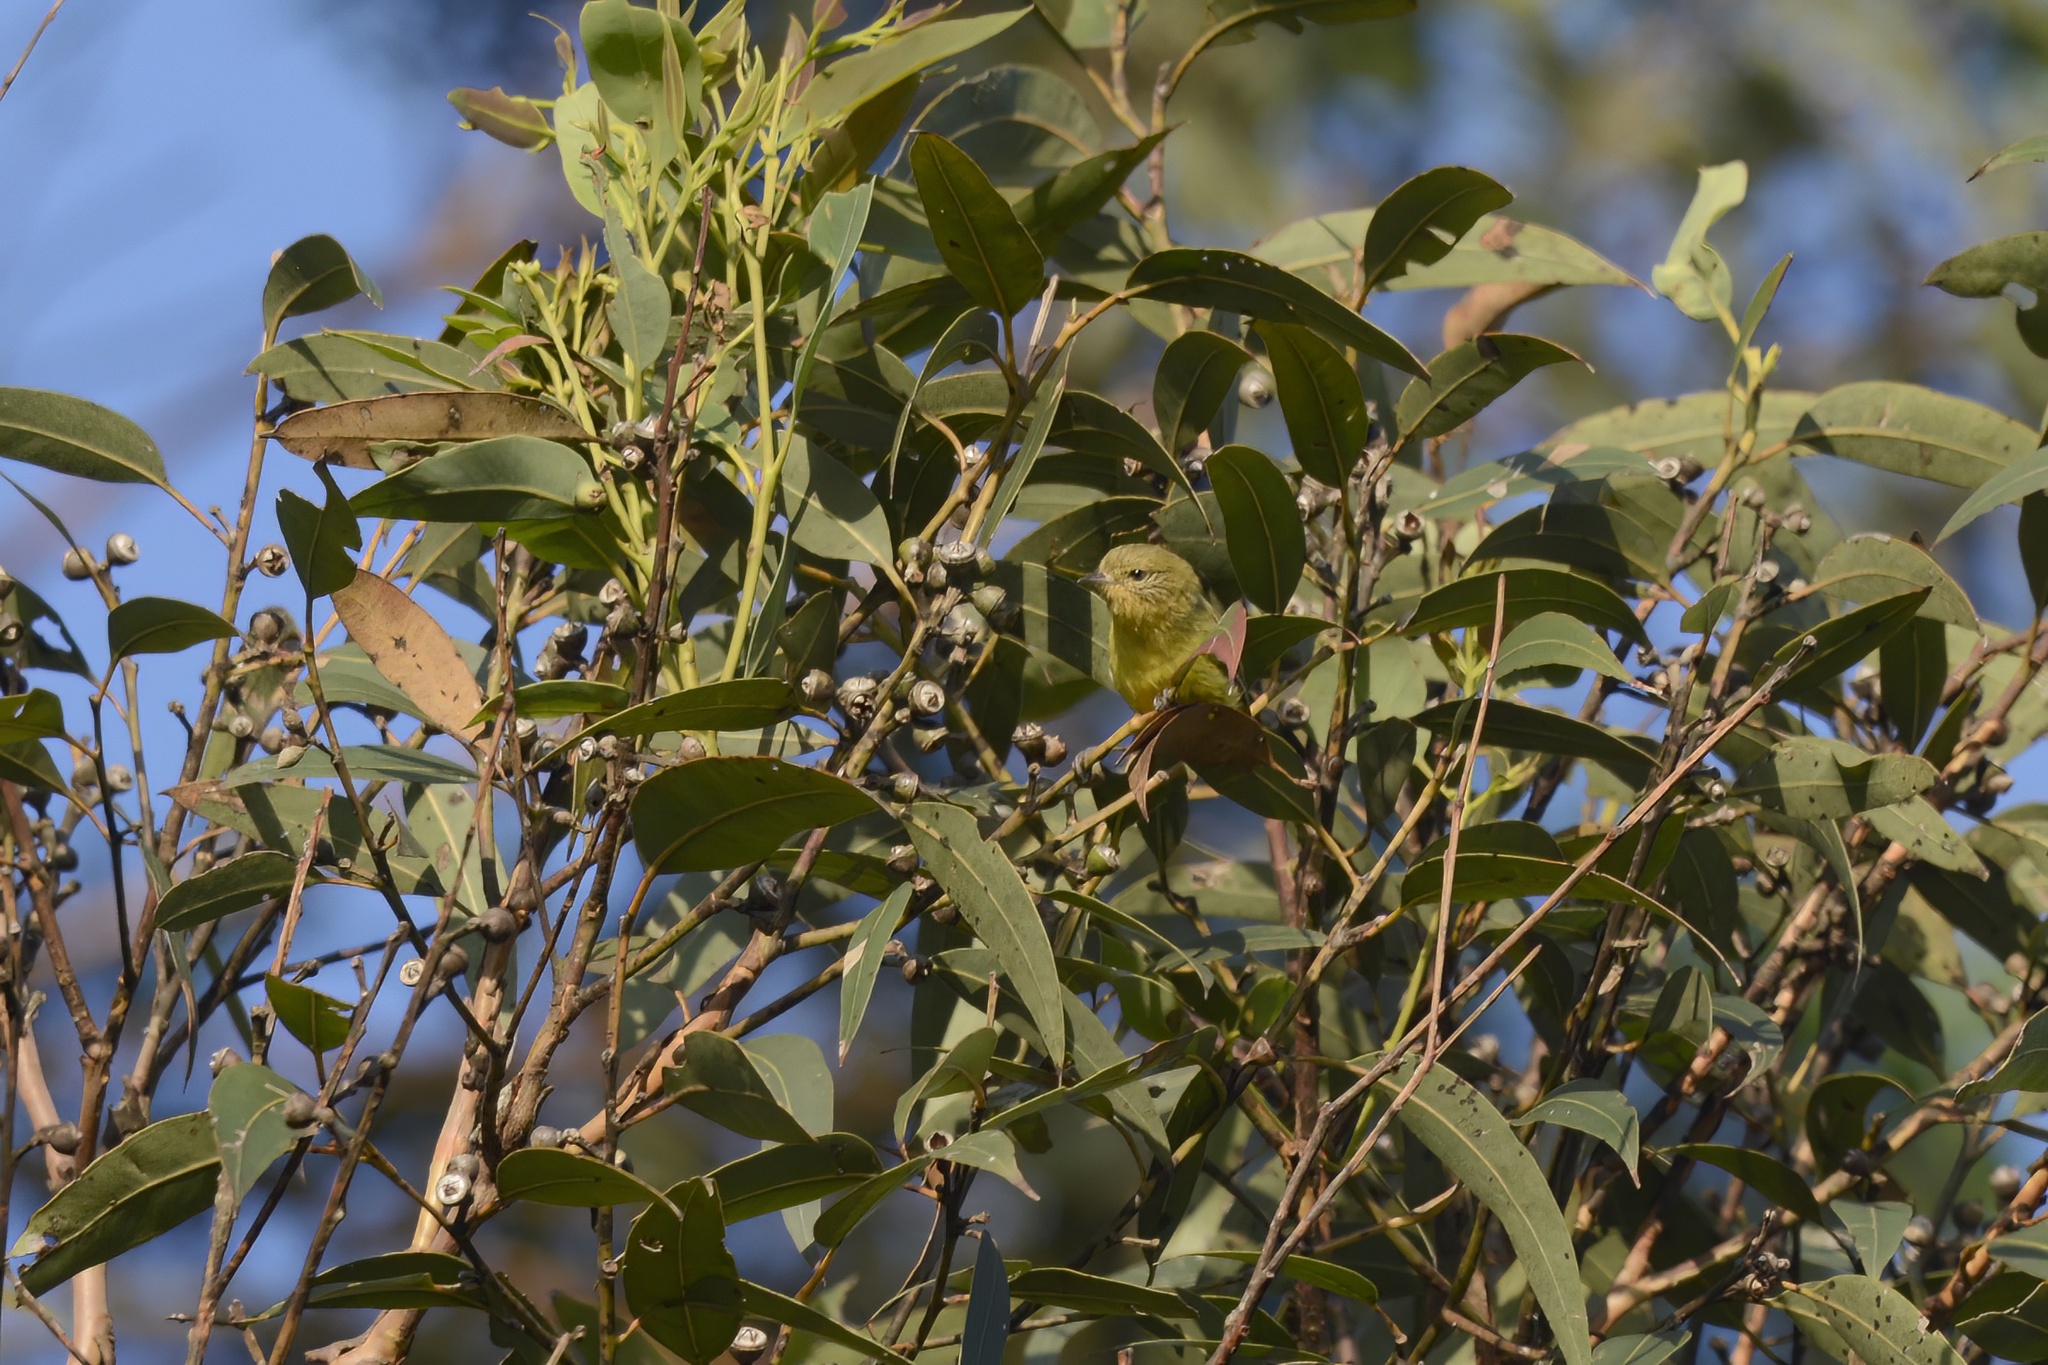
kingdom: Animalia
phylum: Chordata
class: Aves
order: Passeriformes
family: Acanthizidae
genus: Acanthiza
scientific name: Acanthiza nana
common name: Yellow thornbill
